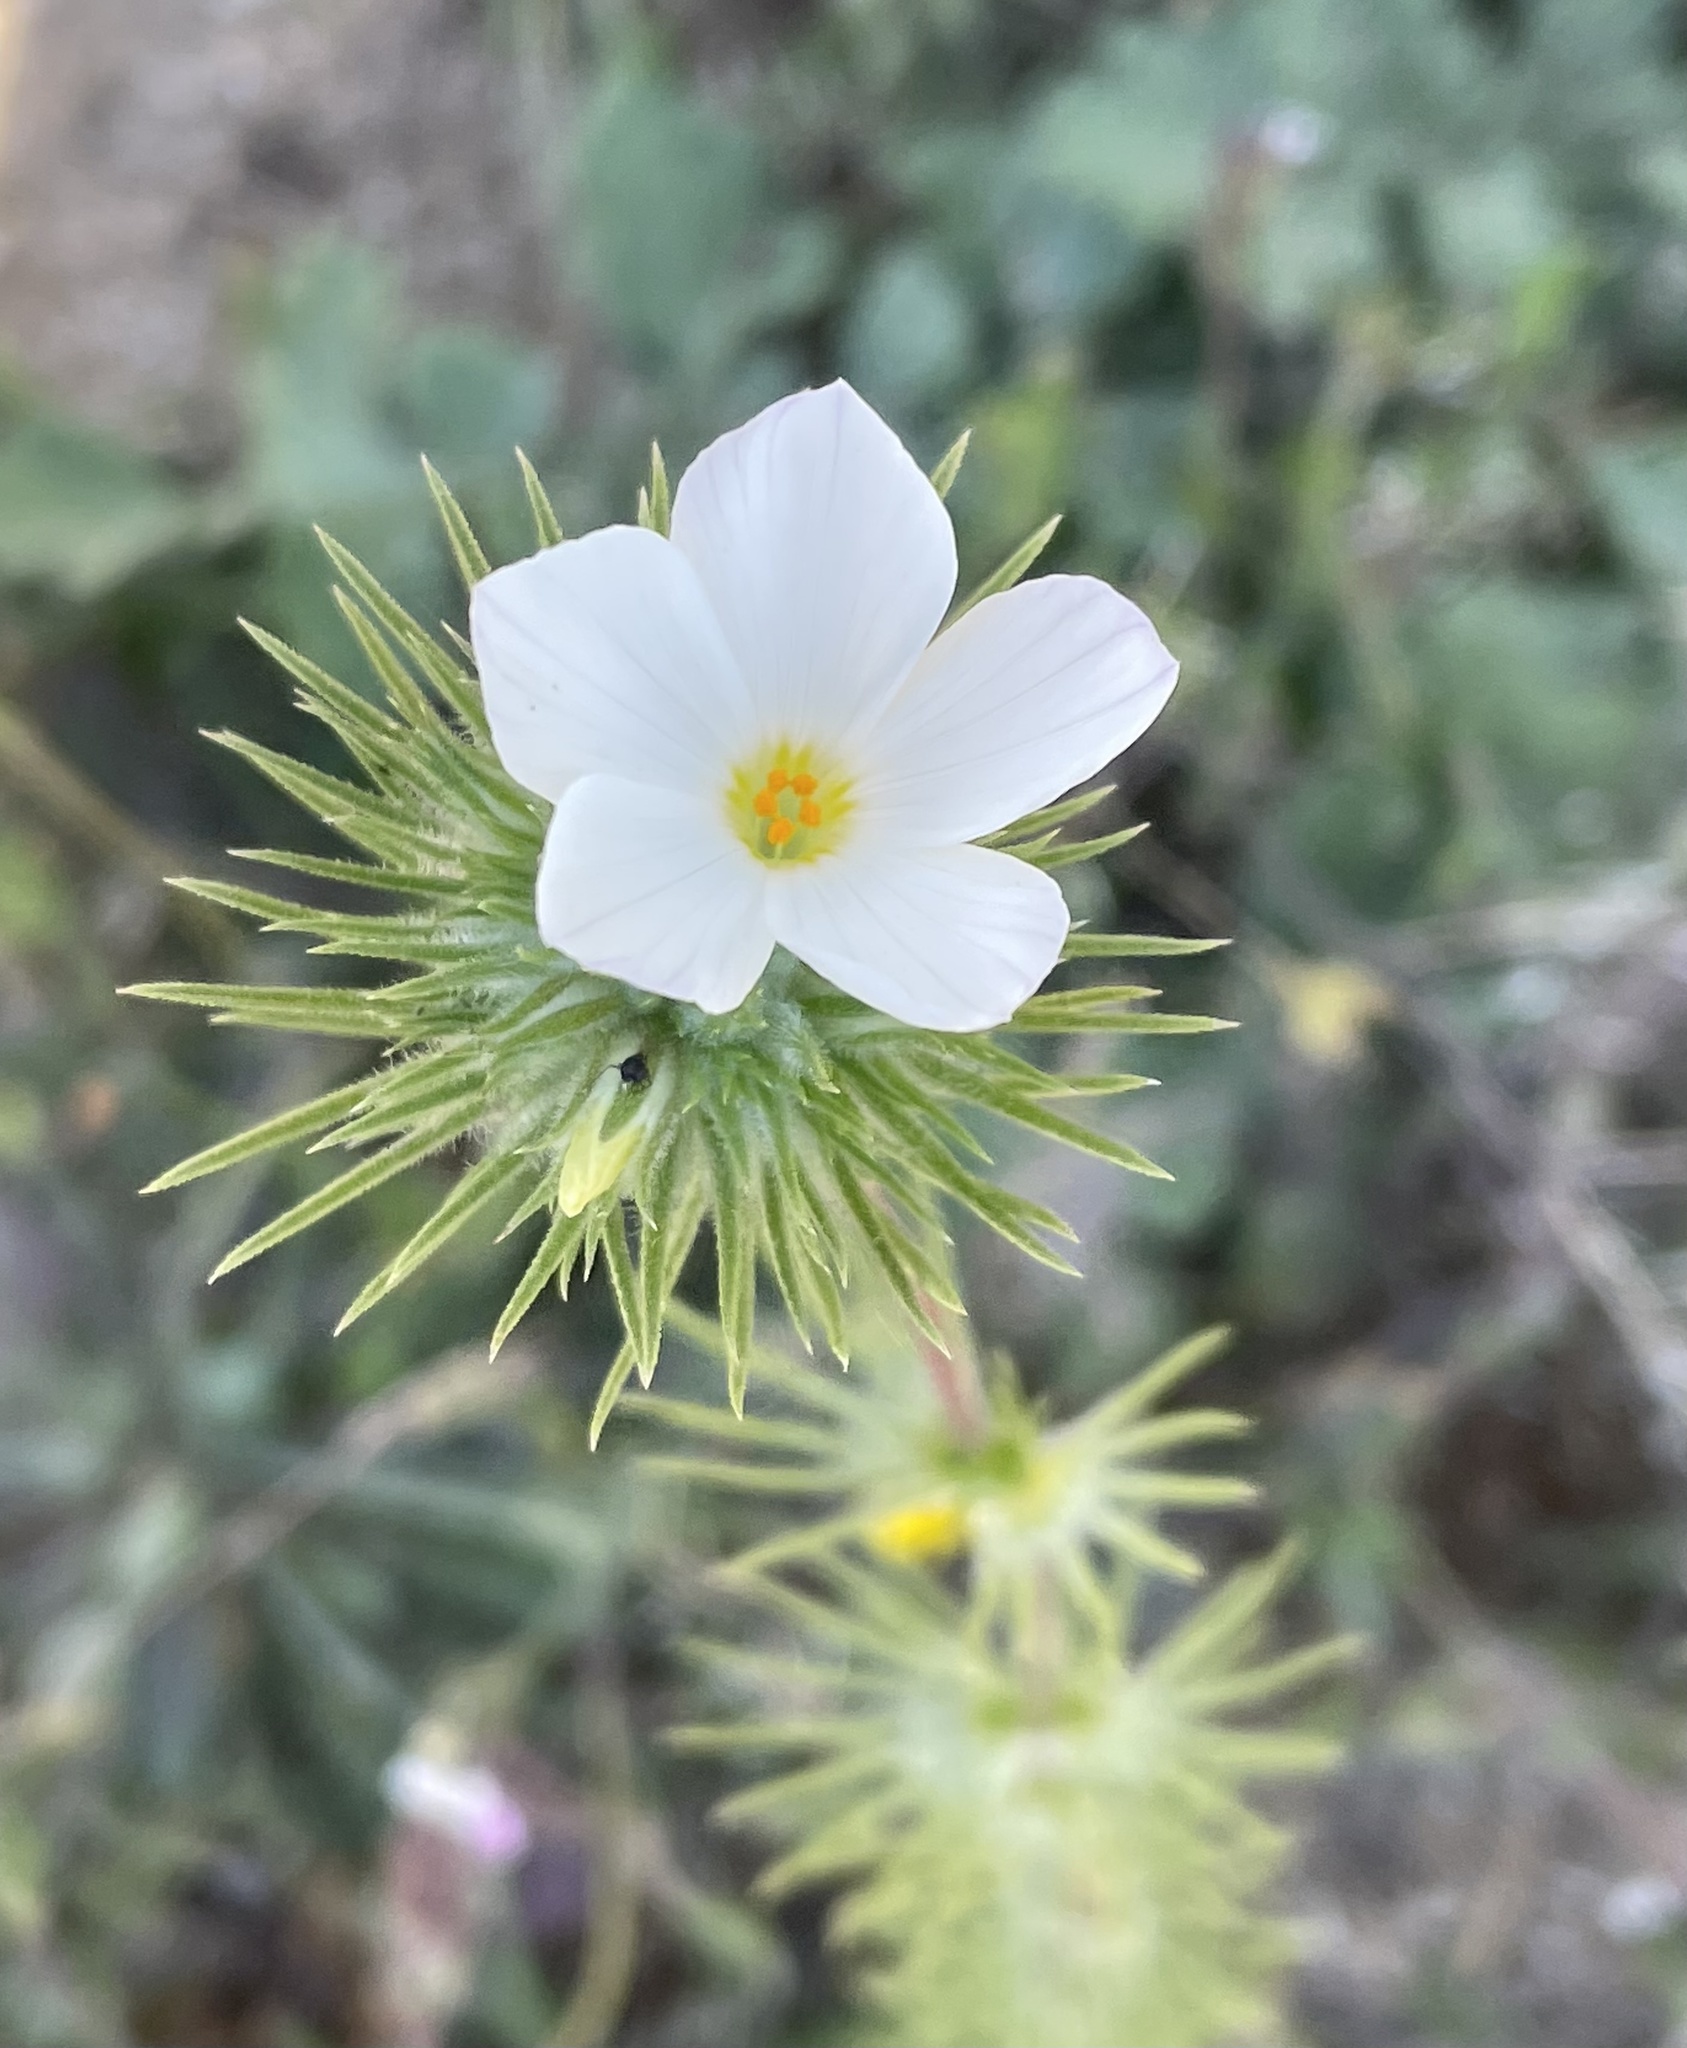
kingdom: Plantae
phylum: Tracheophyta
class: Magnoliopsida
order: Ericales
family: Polemoniaceae
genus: Leptosiphon
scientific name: Leptosiphon grandiflorus
